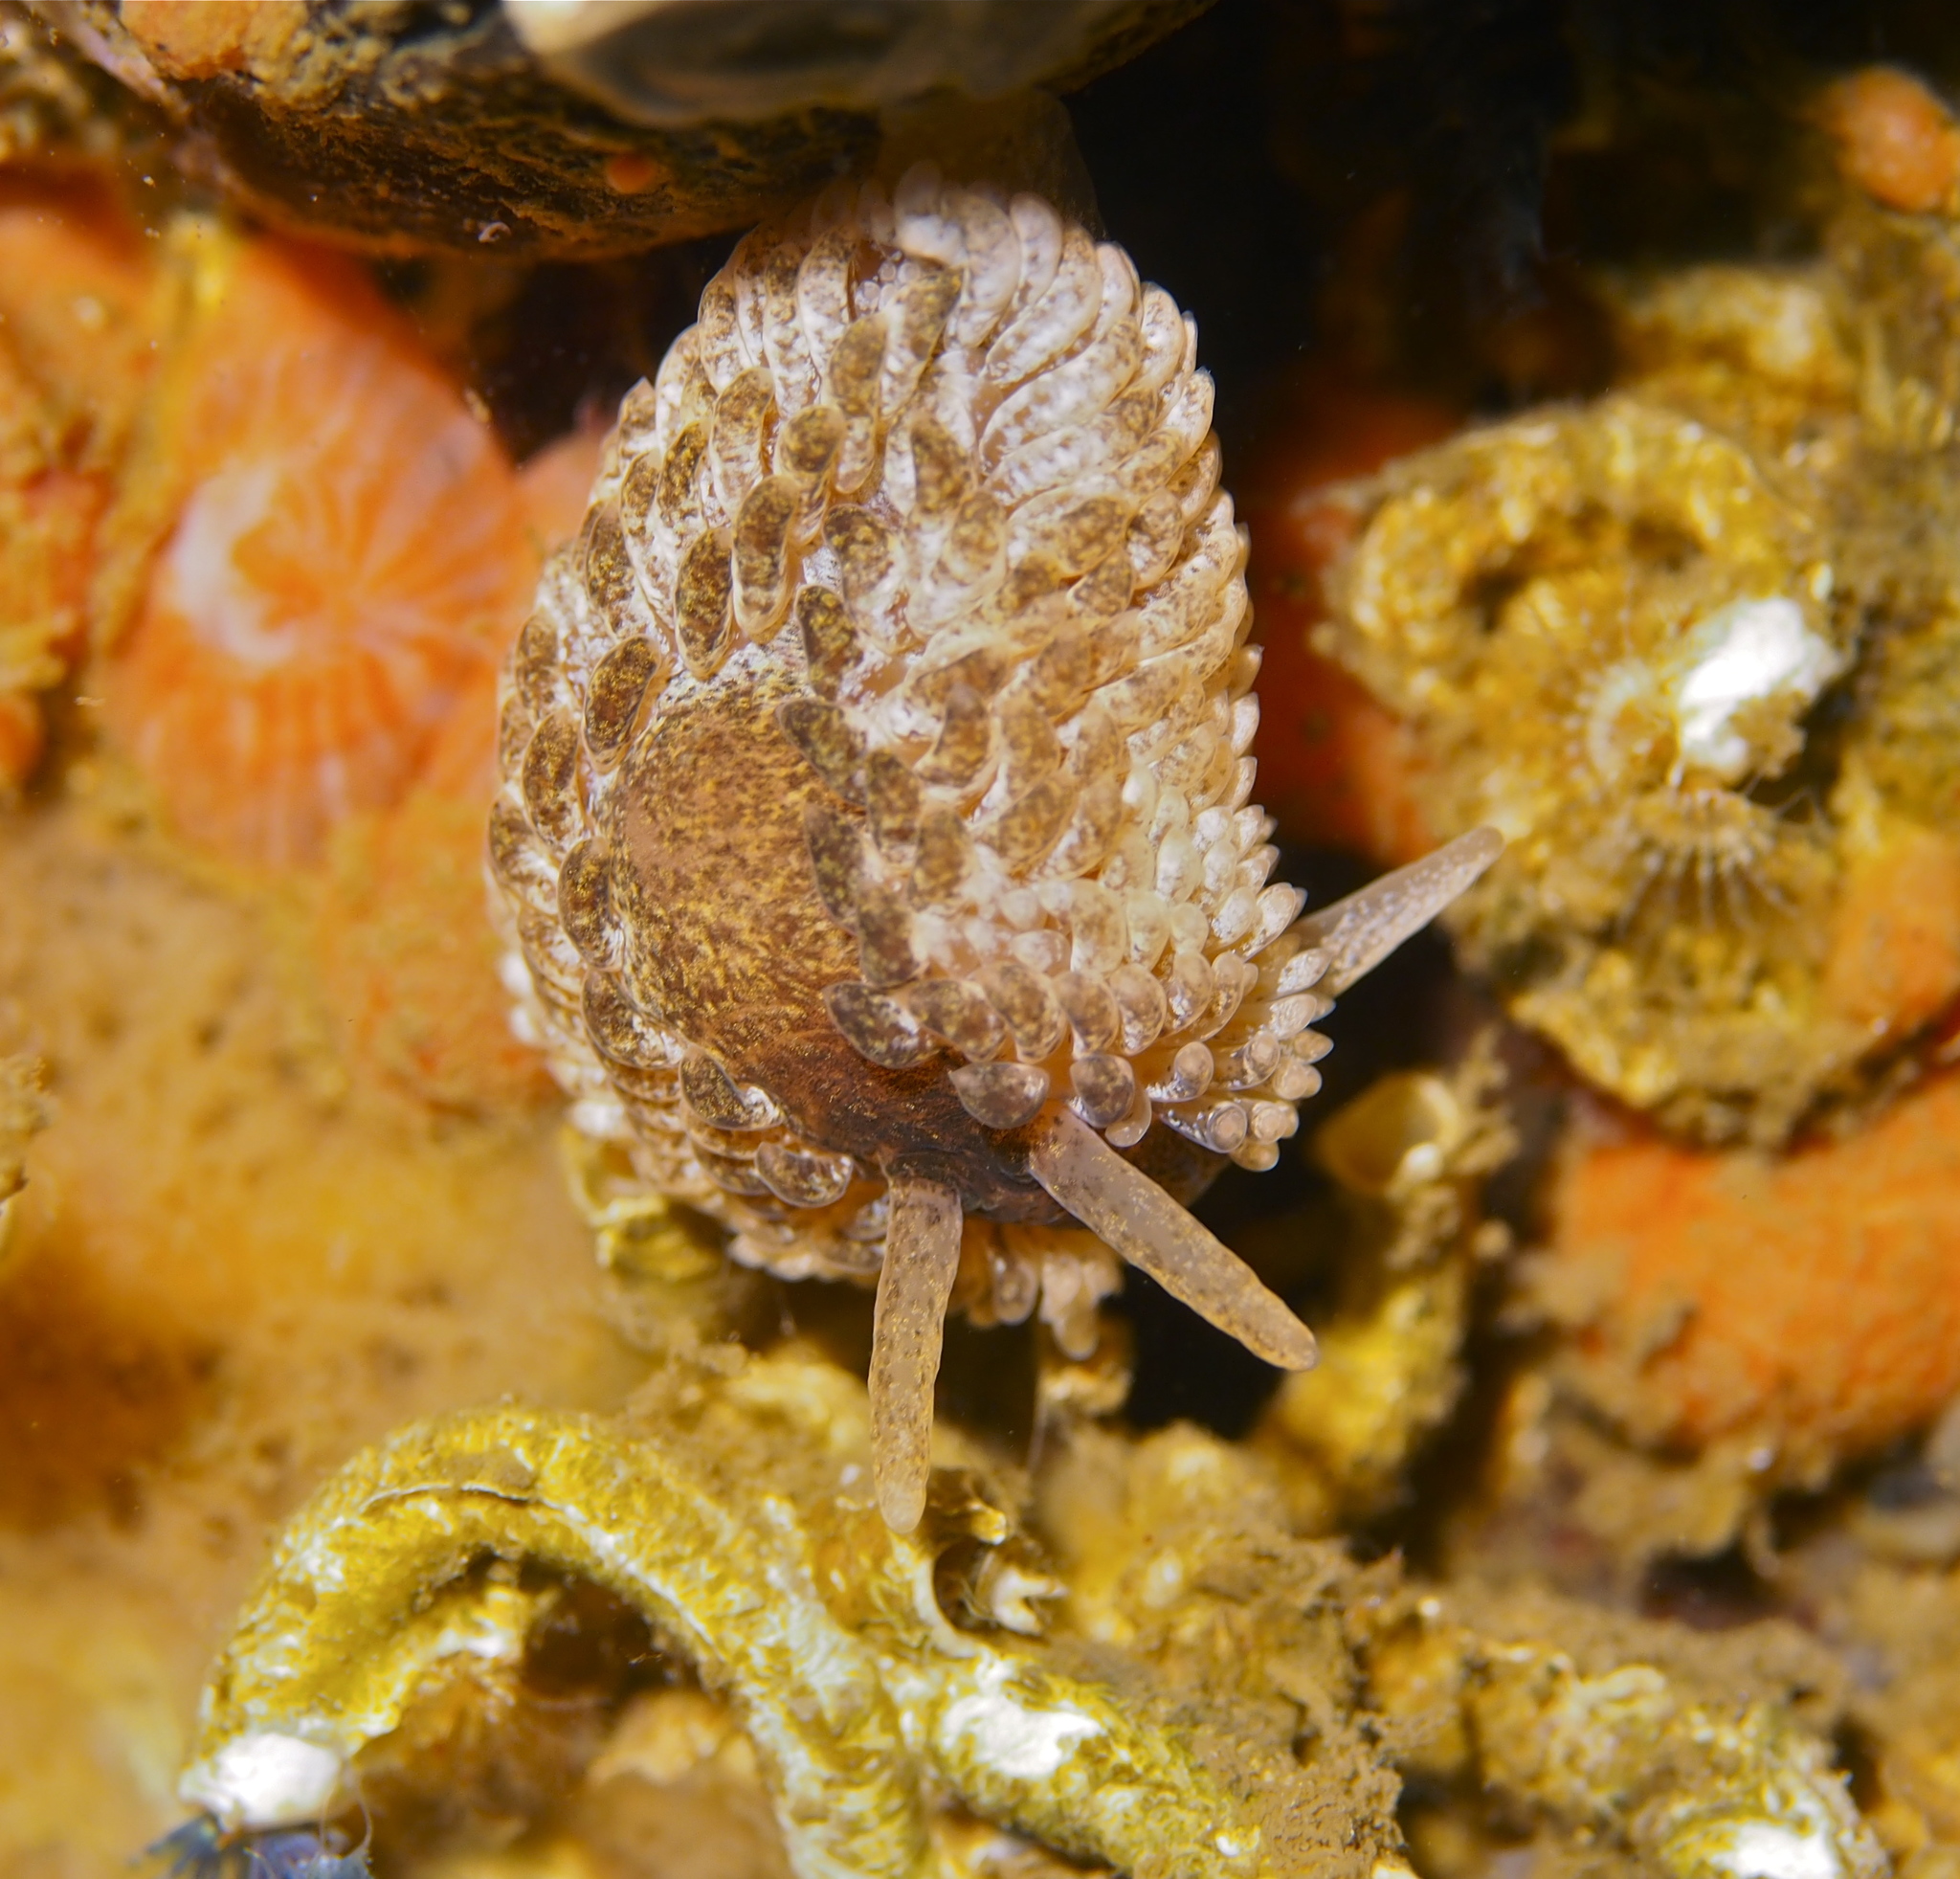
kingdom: Animalia
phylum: Mollusca
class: Gastropoda
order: Nudibranchia
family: Aeolidiidae
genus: Aeolidia
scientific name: Aeolidia papillosa
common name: Common grey sea slug
